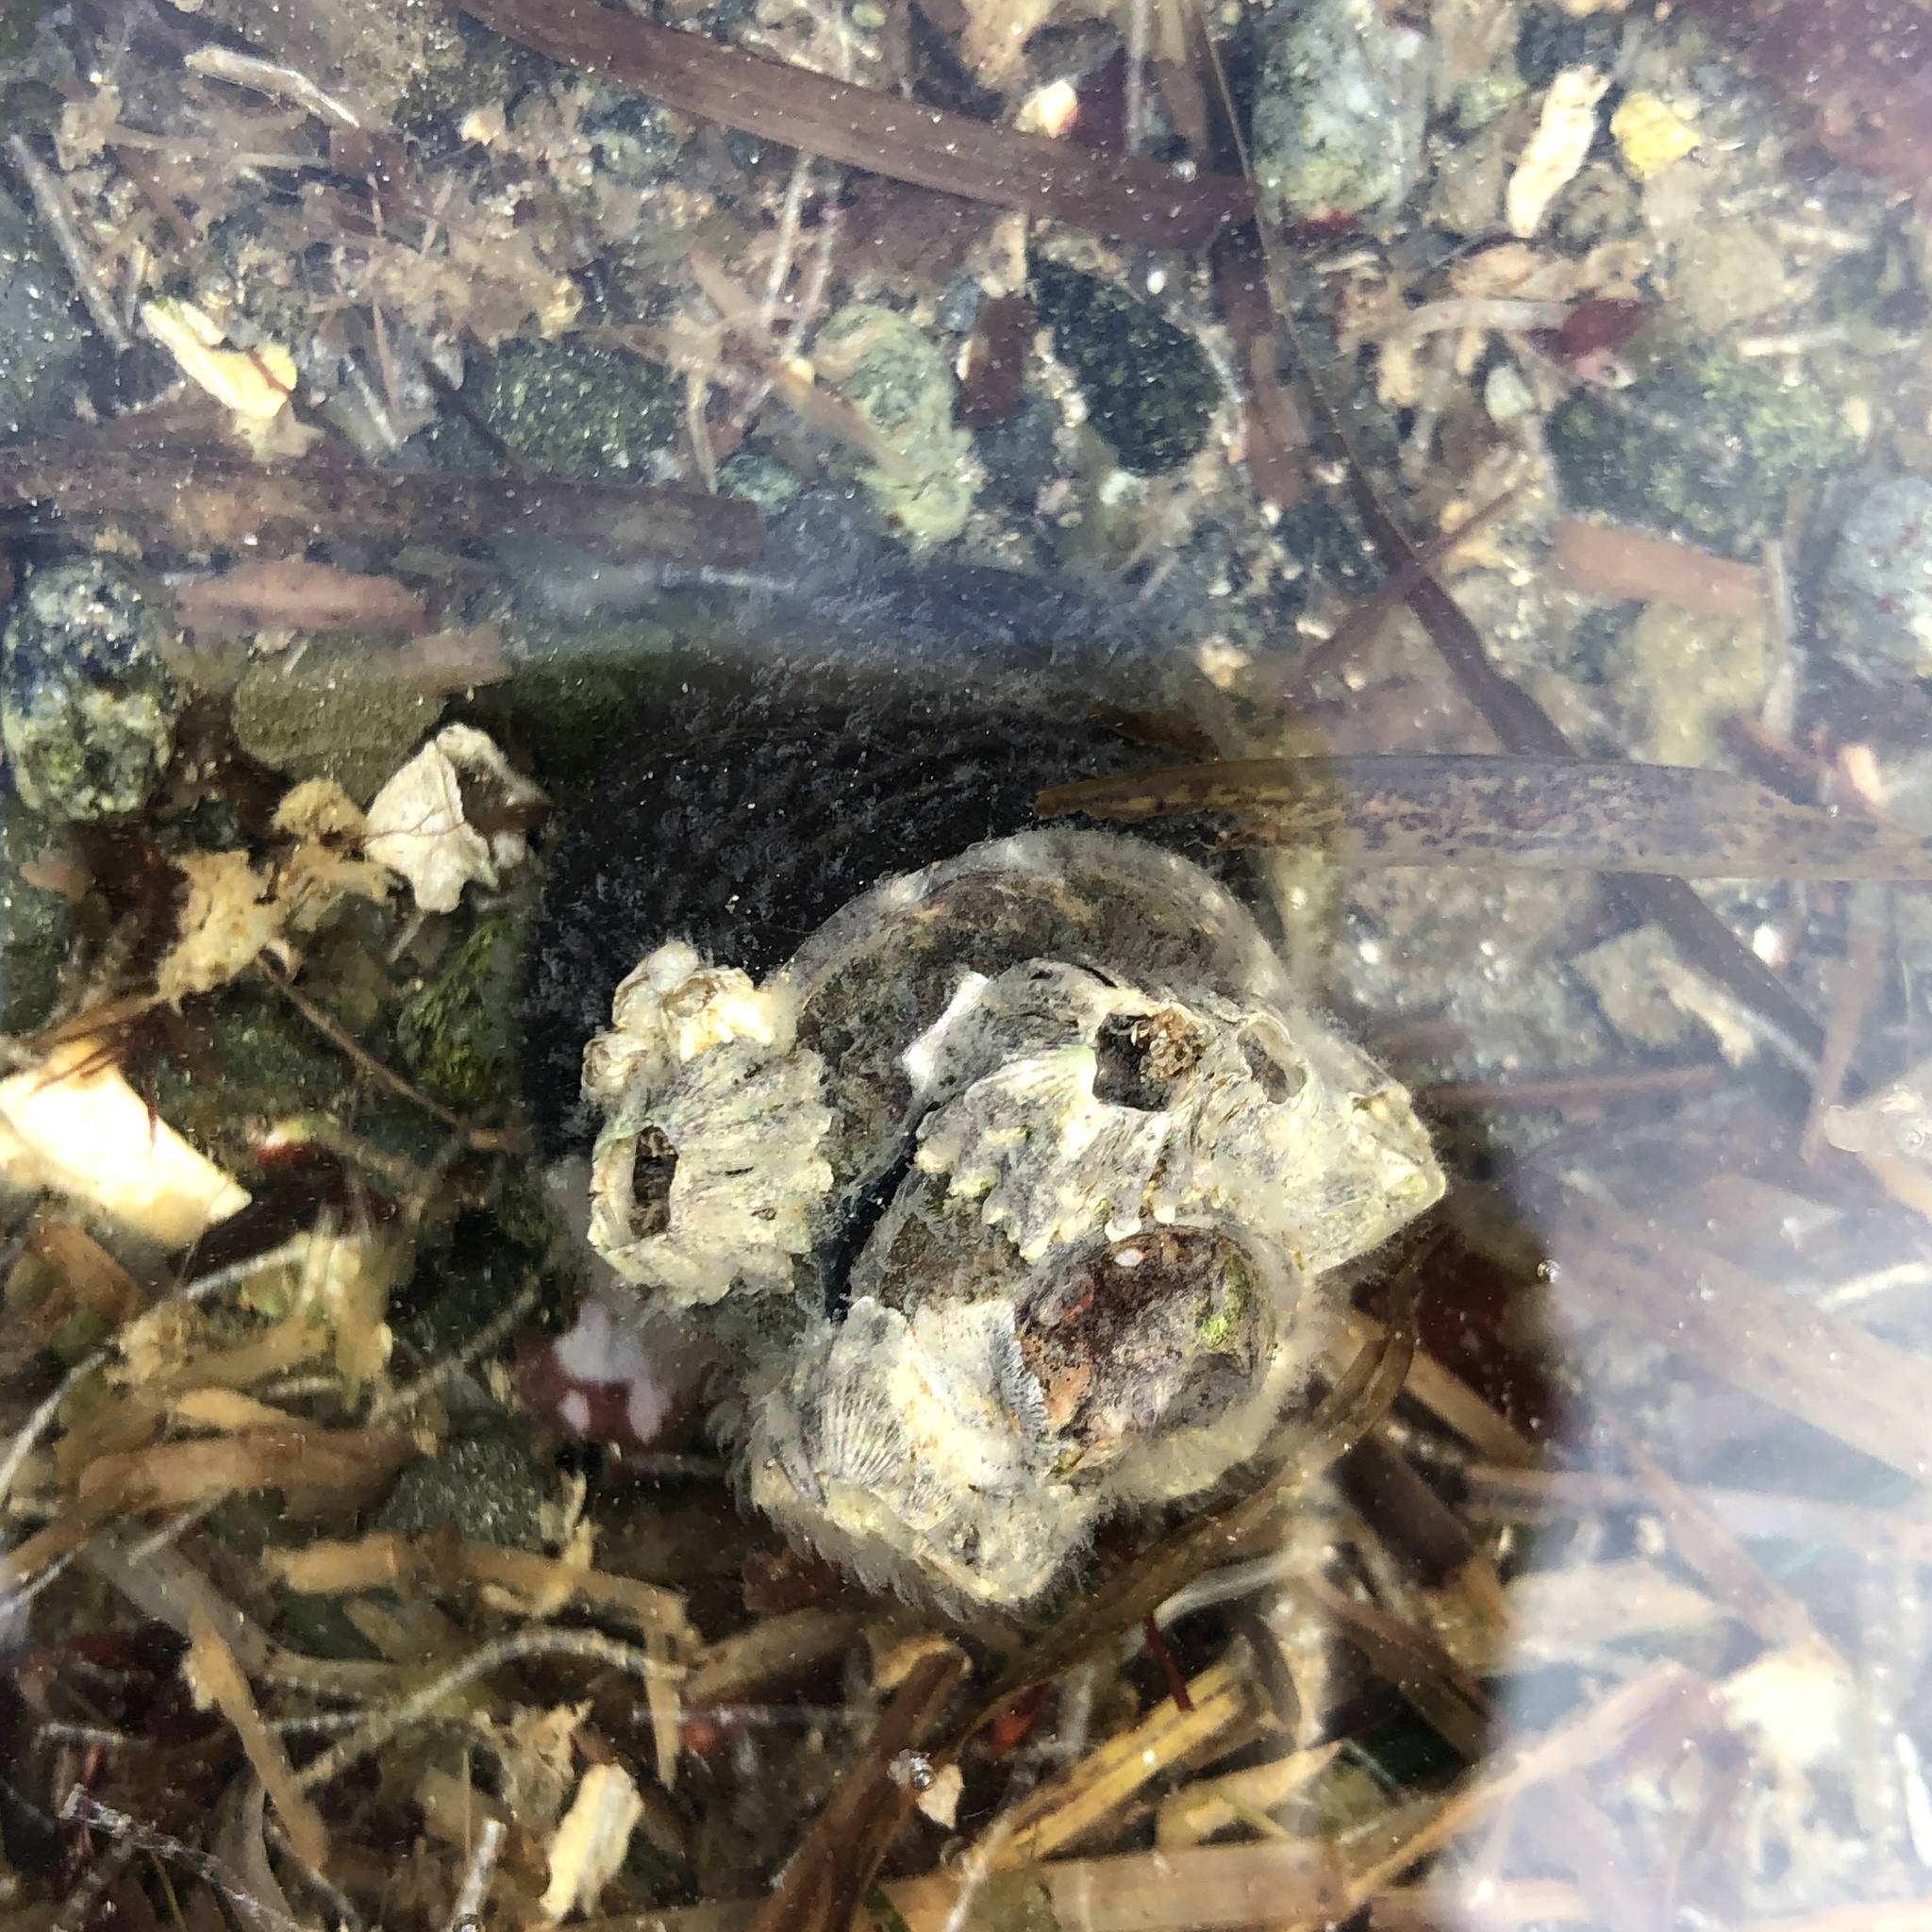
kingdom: Animalia
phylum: Mollusca
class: Gastropoda
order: Trochida
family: Tegulidae
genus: Tegula
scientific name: Tegula funebralis
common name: Black tegula
